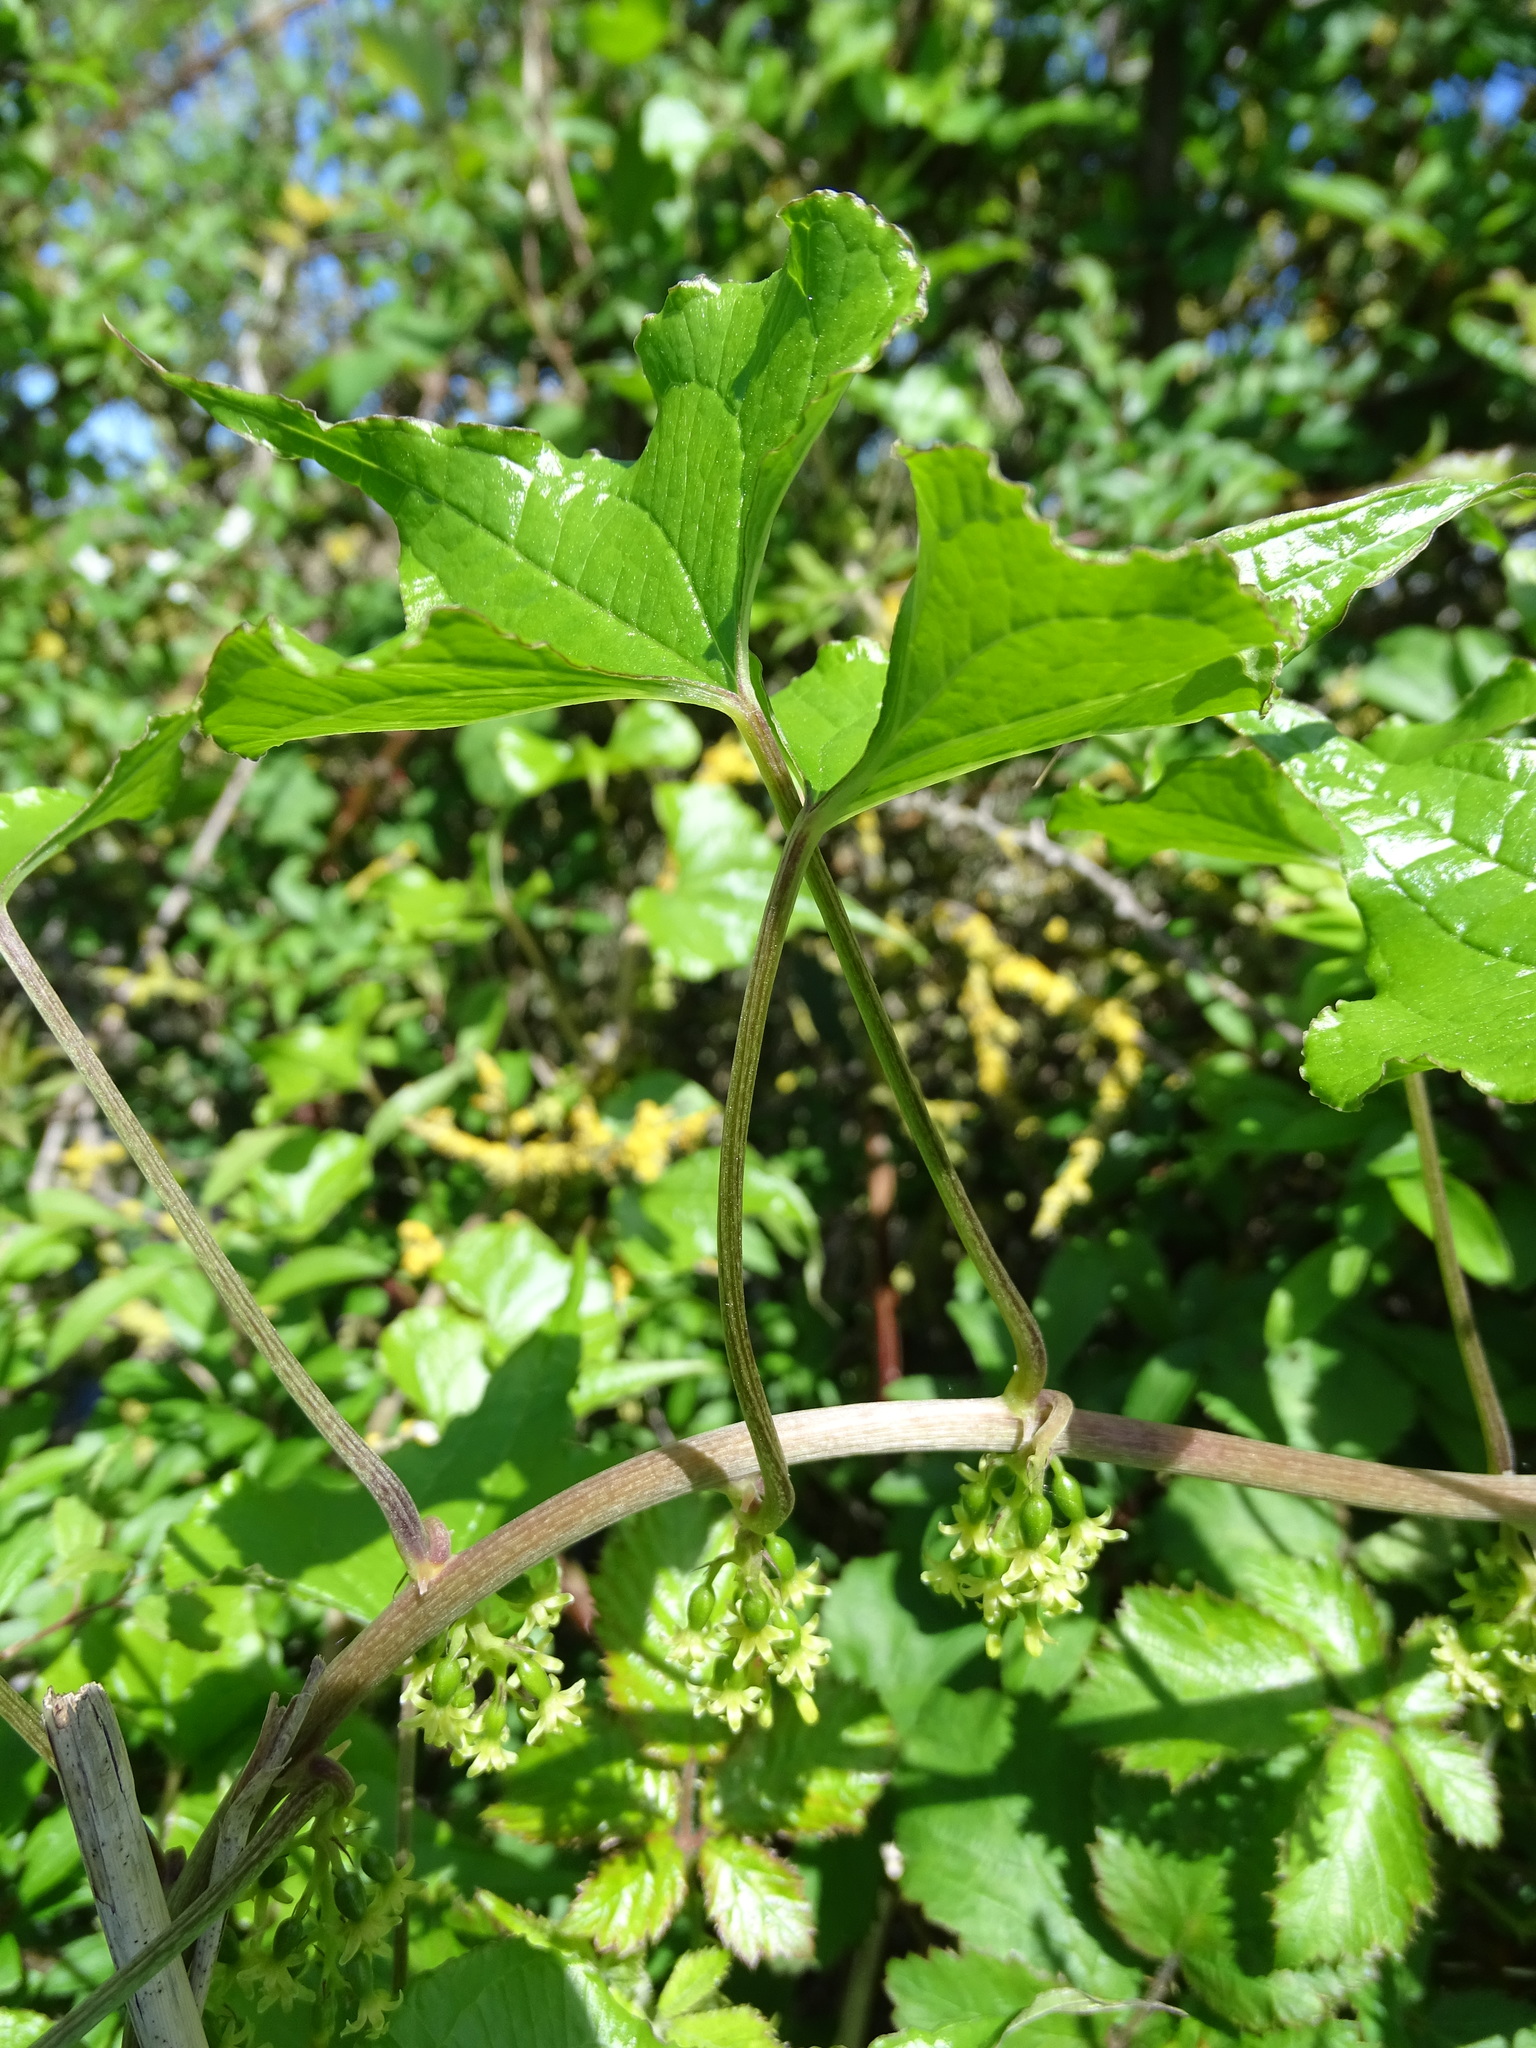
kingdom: Plantae
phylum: Tracheophyta
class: Liliopsida
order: Dioscoreales
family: Dioscoreaceae
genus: Dioscorea
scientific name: Dioscorea communis
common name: Black-bindweed
